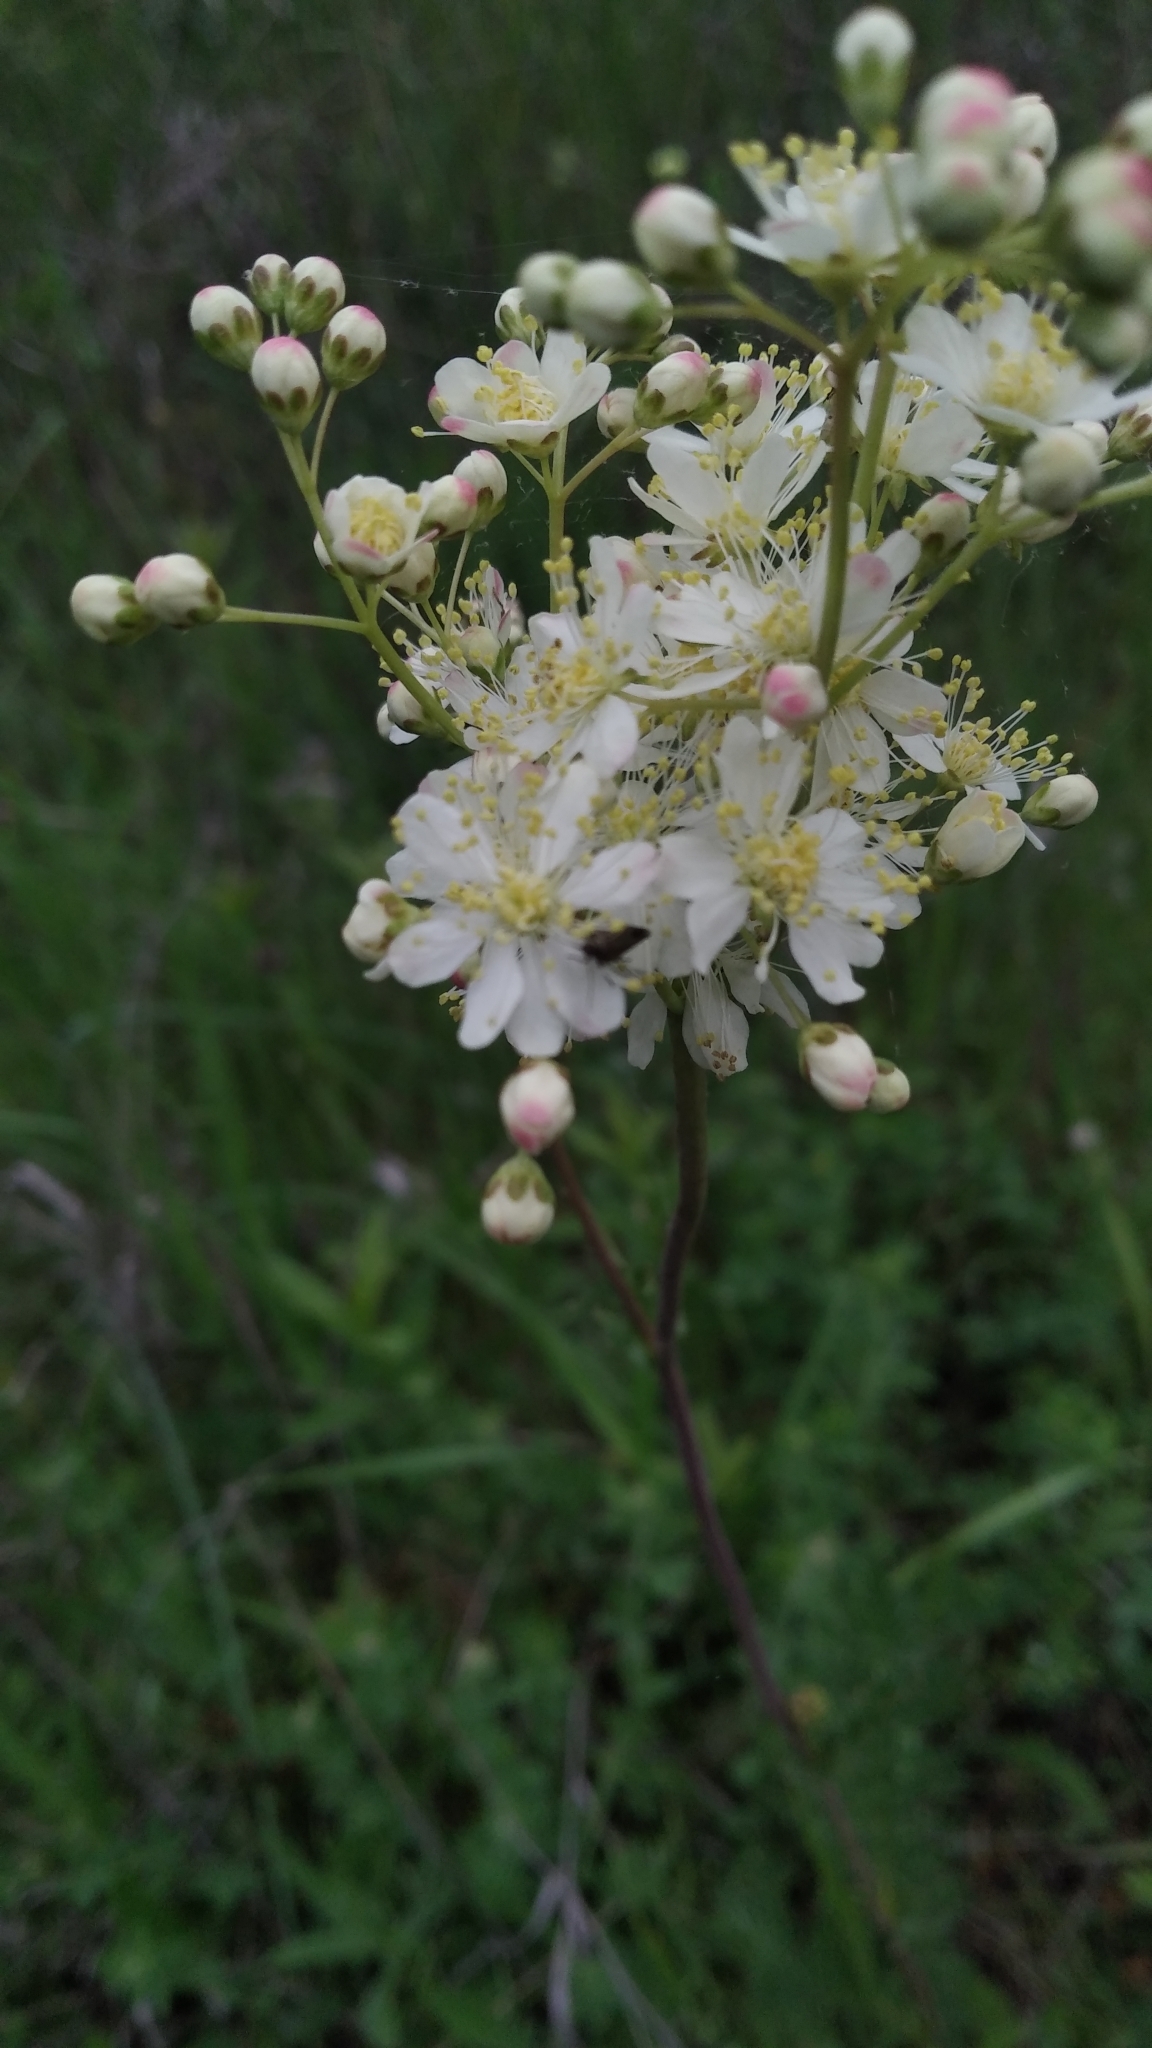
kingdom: Plantae
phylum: Tracheophyta
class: Magnoliopsida
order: Rosales
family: Rosaceae
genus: Filipendula
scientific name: Filipendula vulgaris
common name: Dropwort
